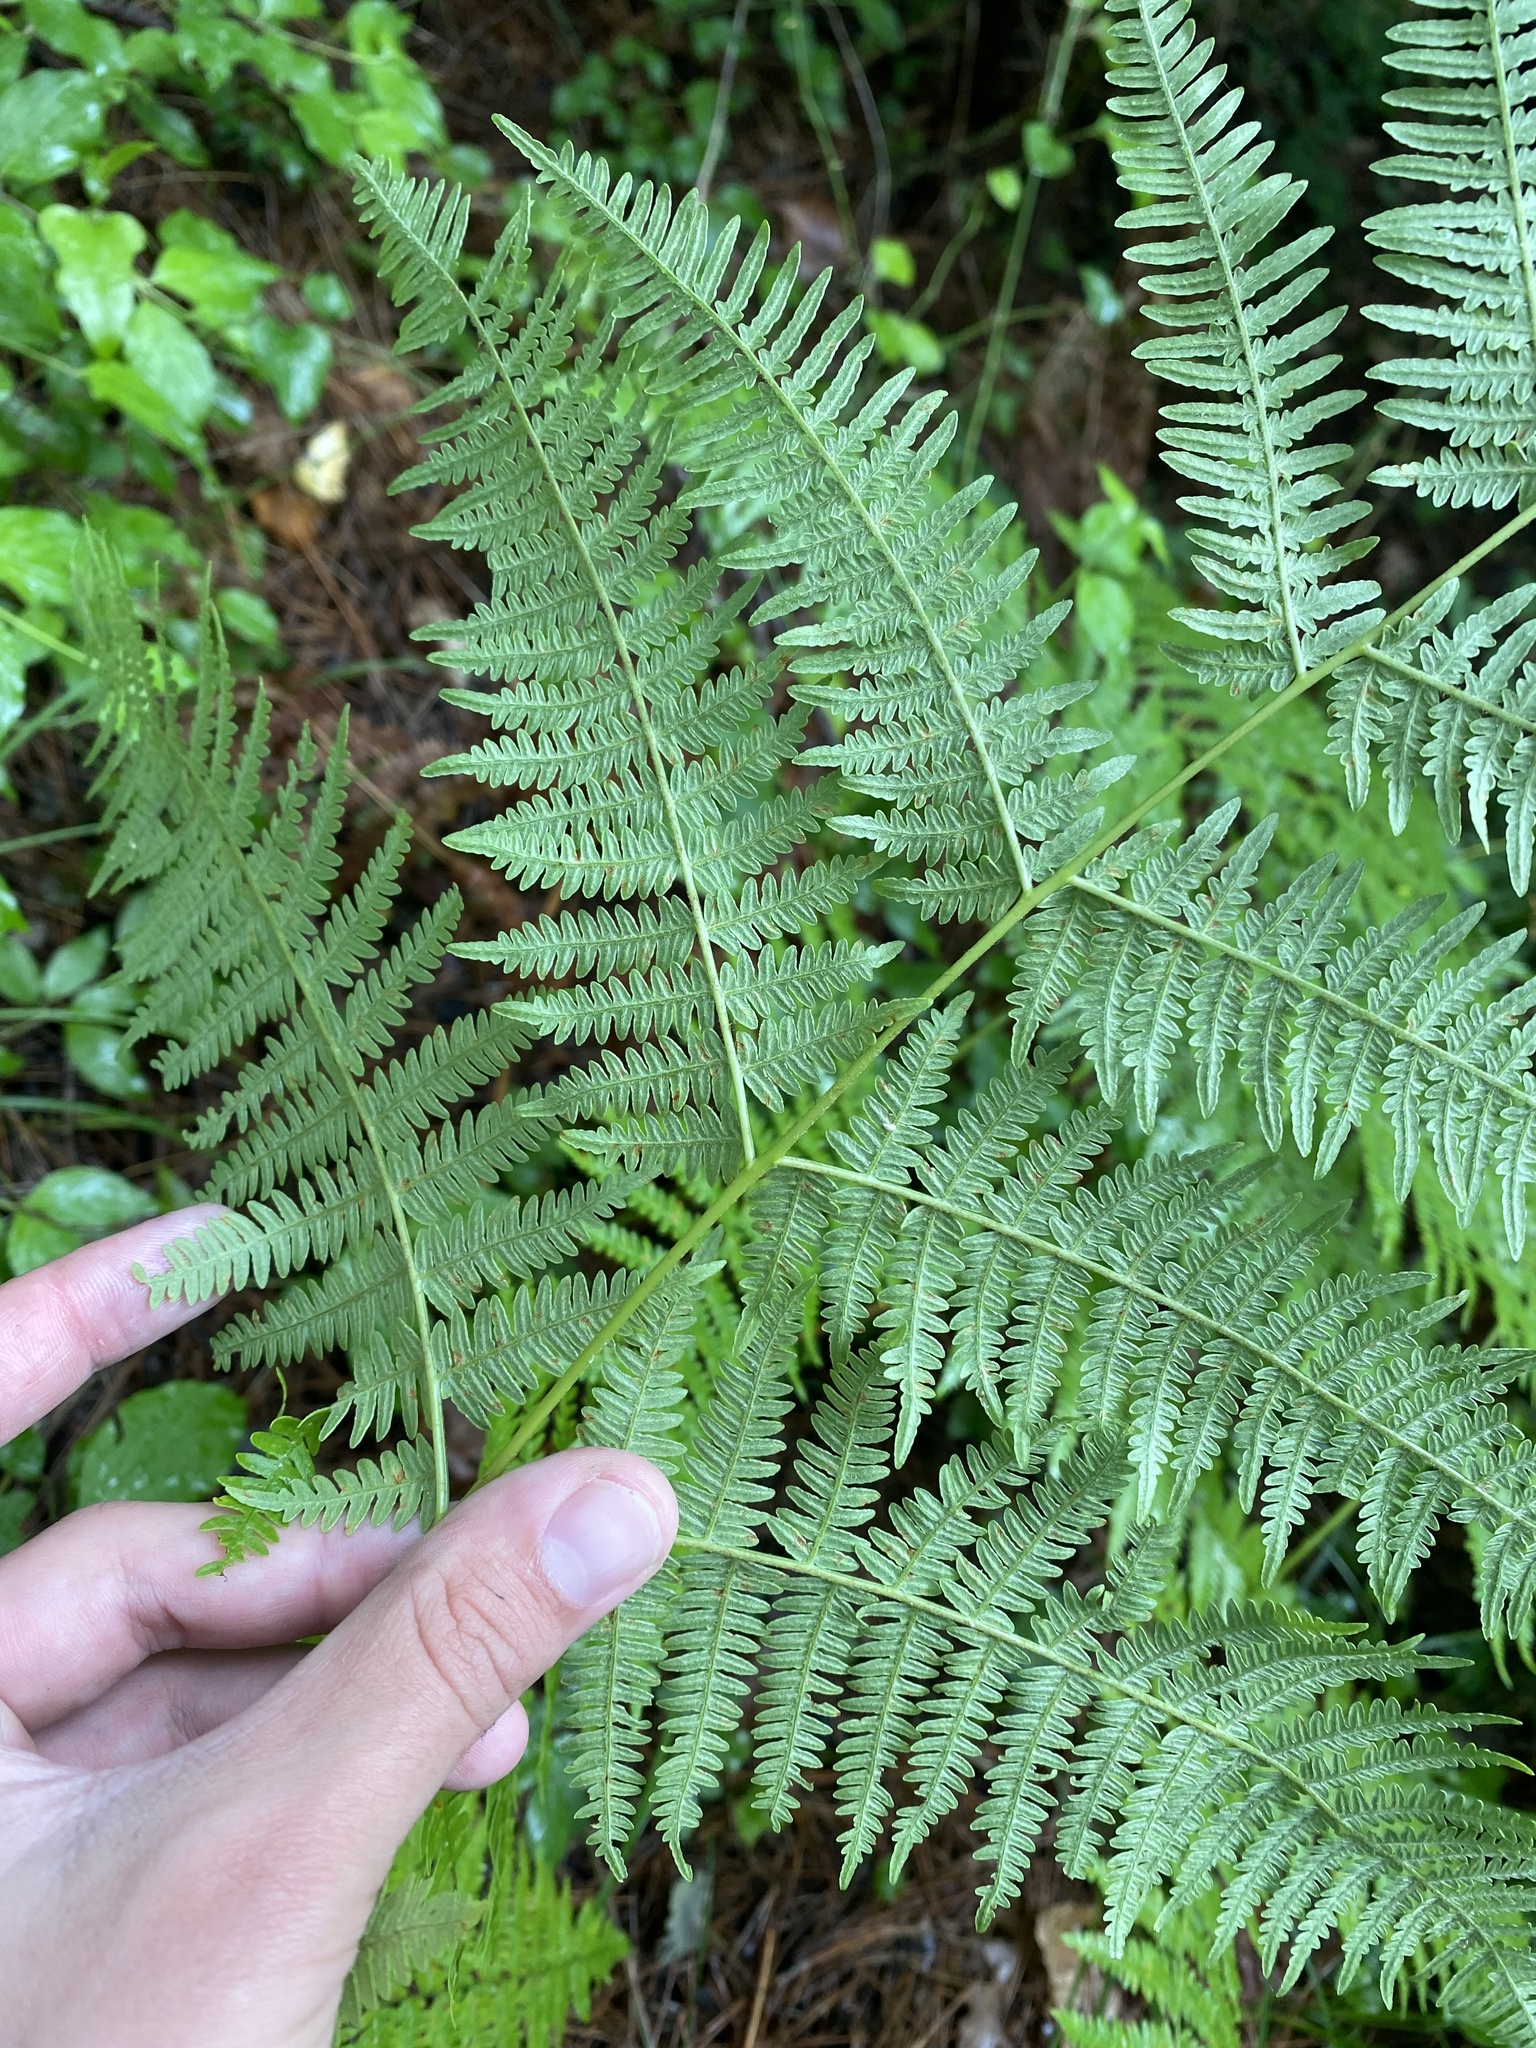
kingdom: Plantae
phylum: Tracheophyta
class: Polypodiopsida
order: Polypodiales
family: Dennstaedtiaceae
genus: Pteridium
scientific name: Pteridium tauricum
